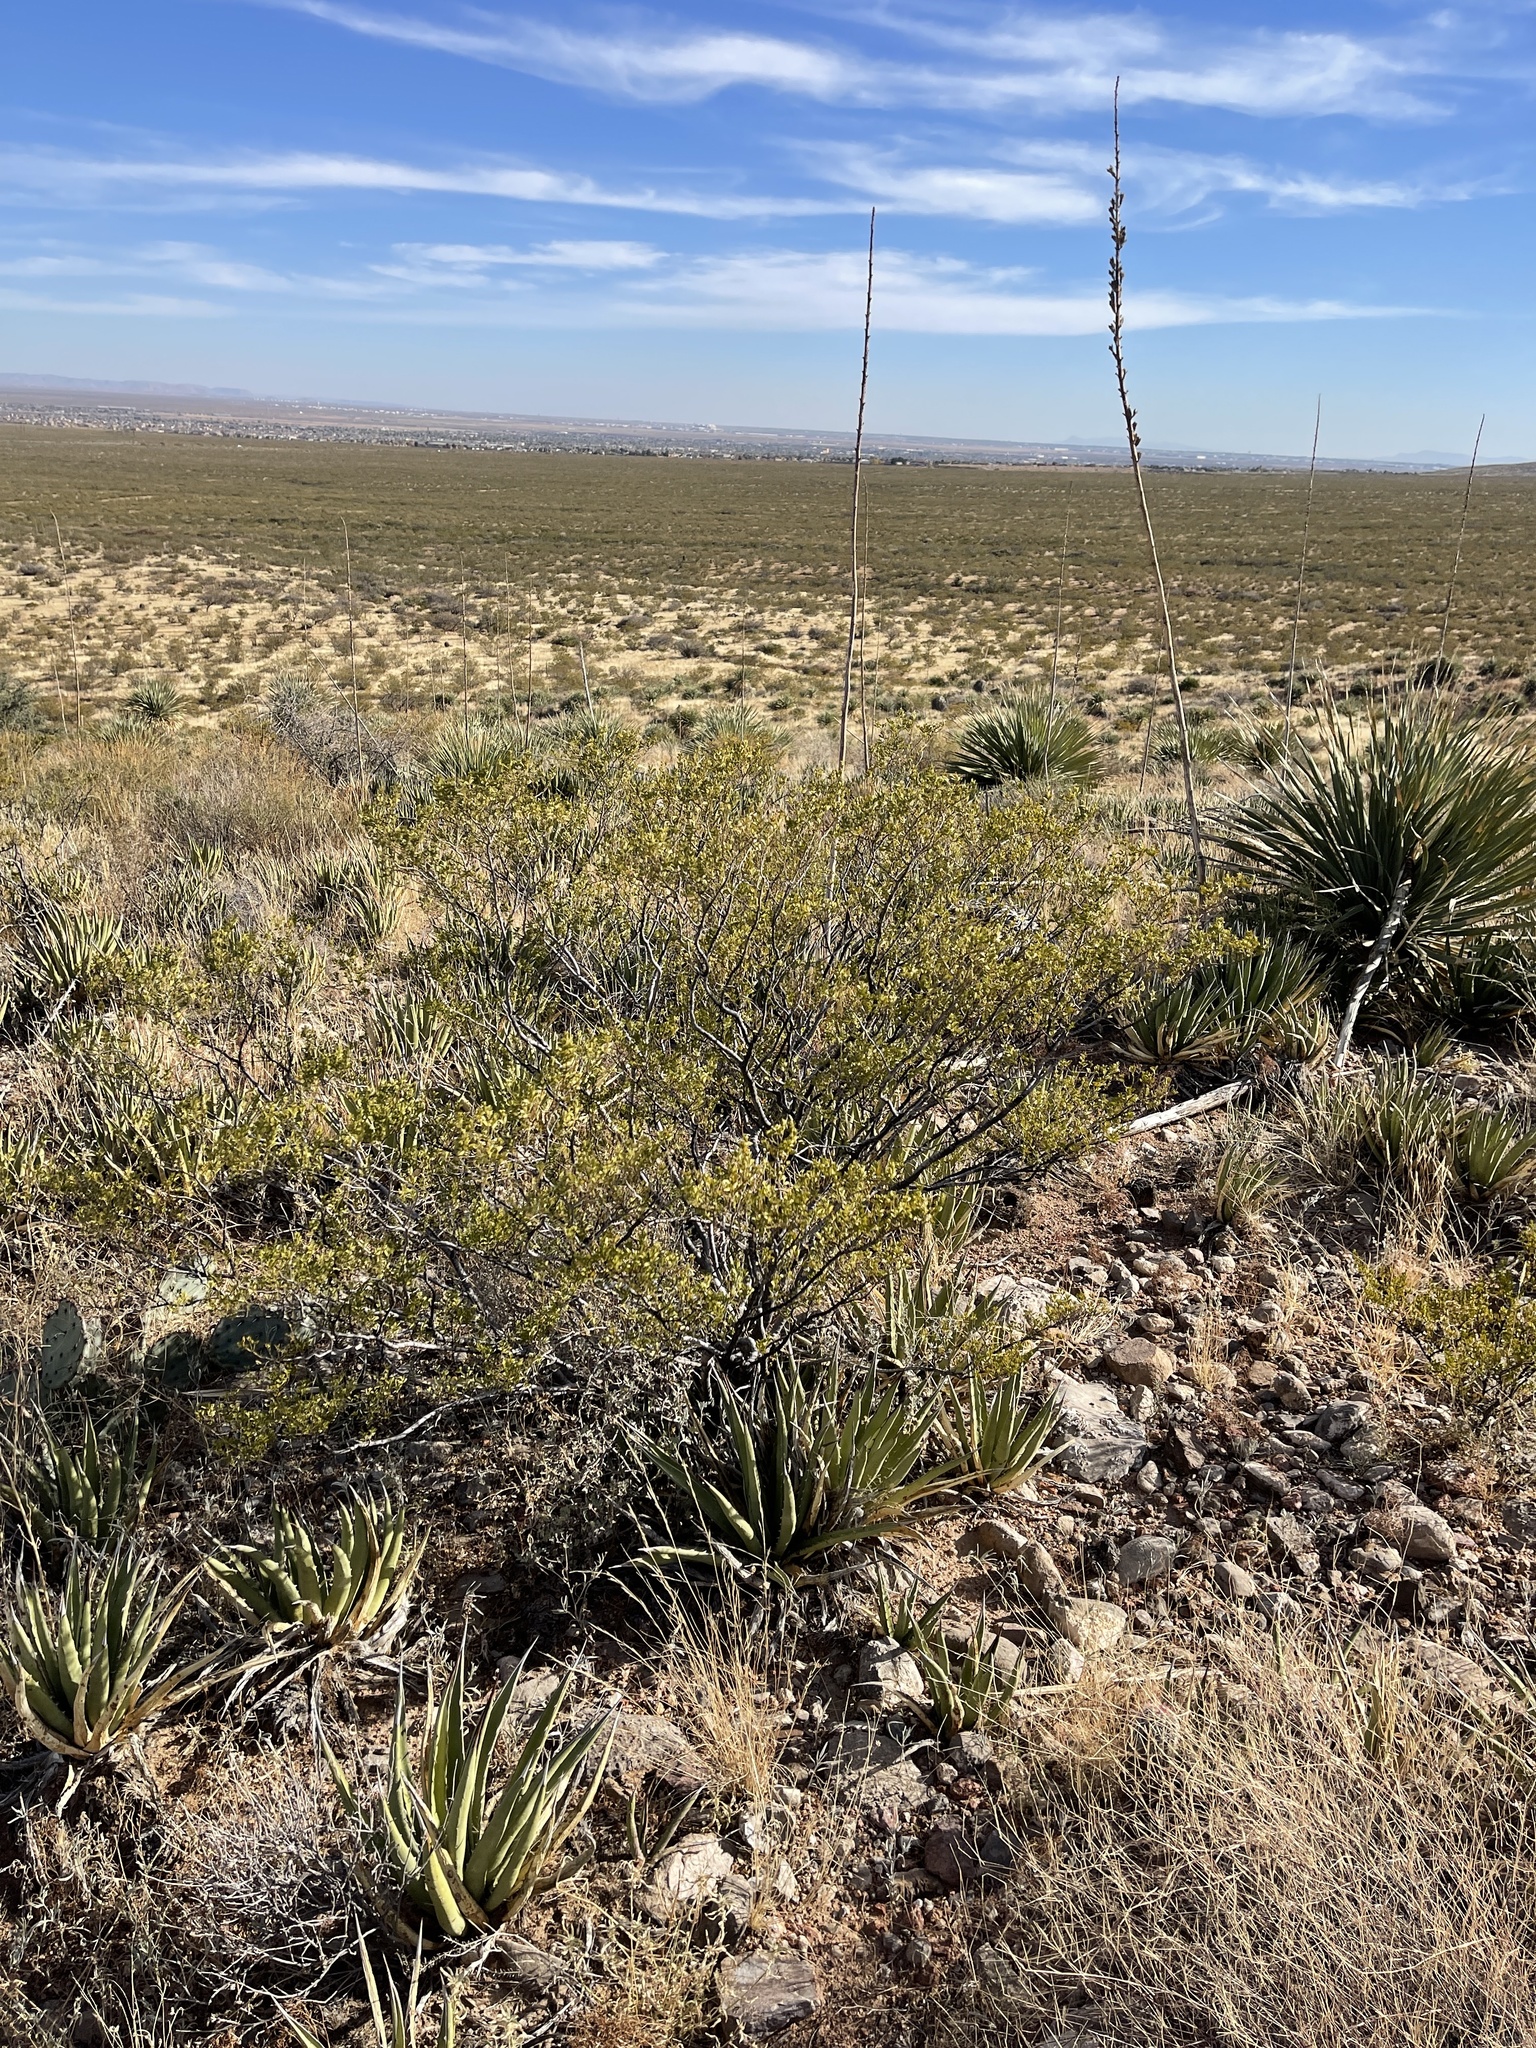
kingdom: Plantae
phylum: Tracheophyta
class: Magnoliopsida
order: Zygophyllales
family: Zygophyllaceae
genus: Larrea
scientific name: Larrea tridentata
